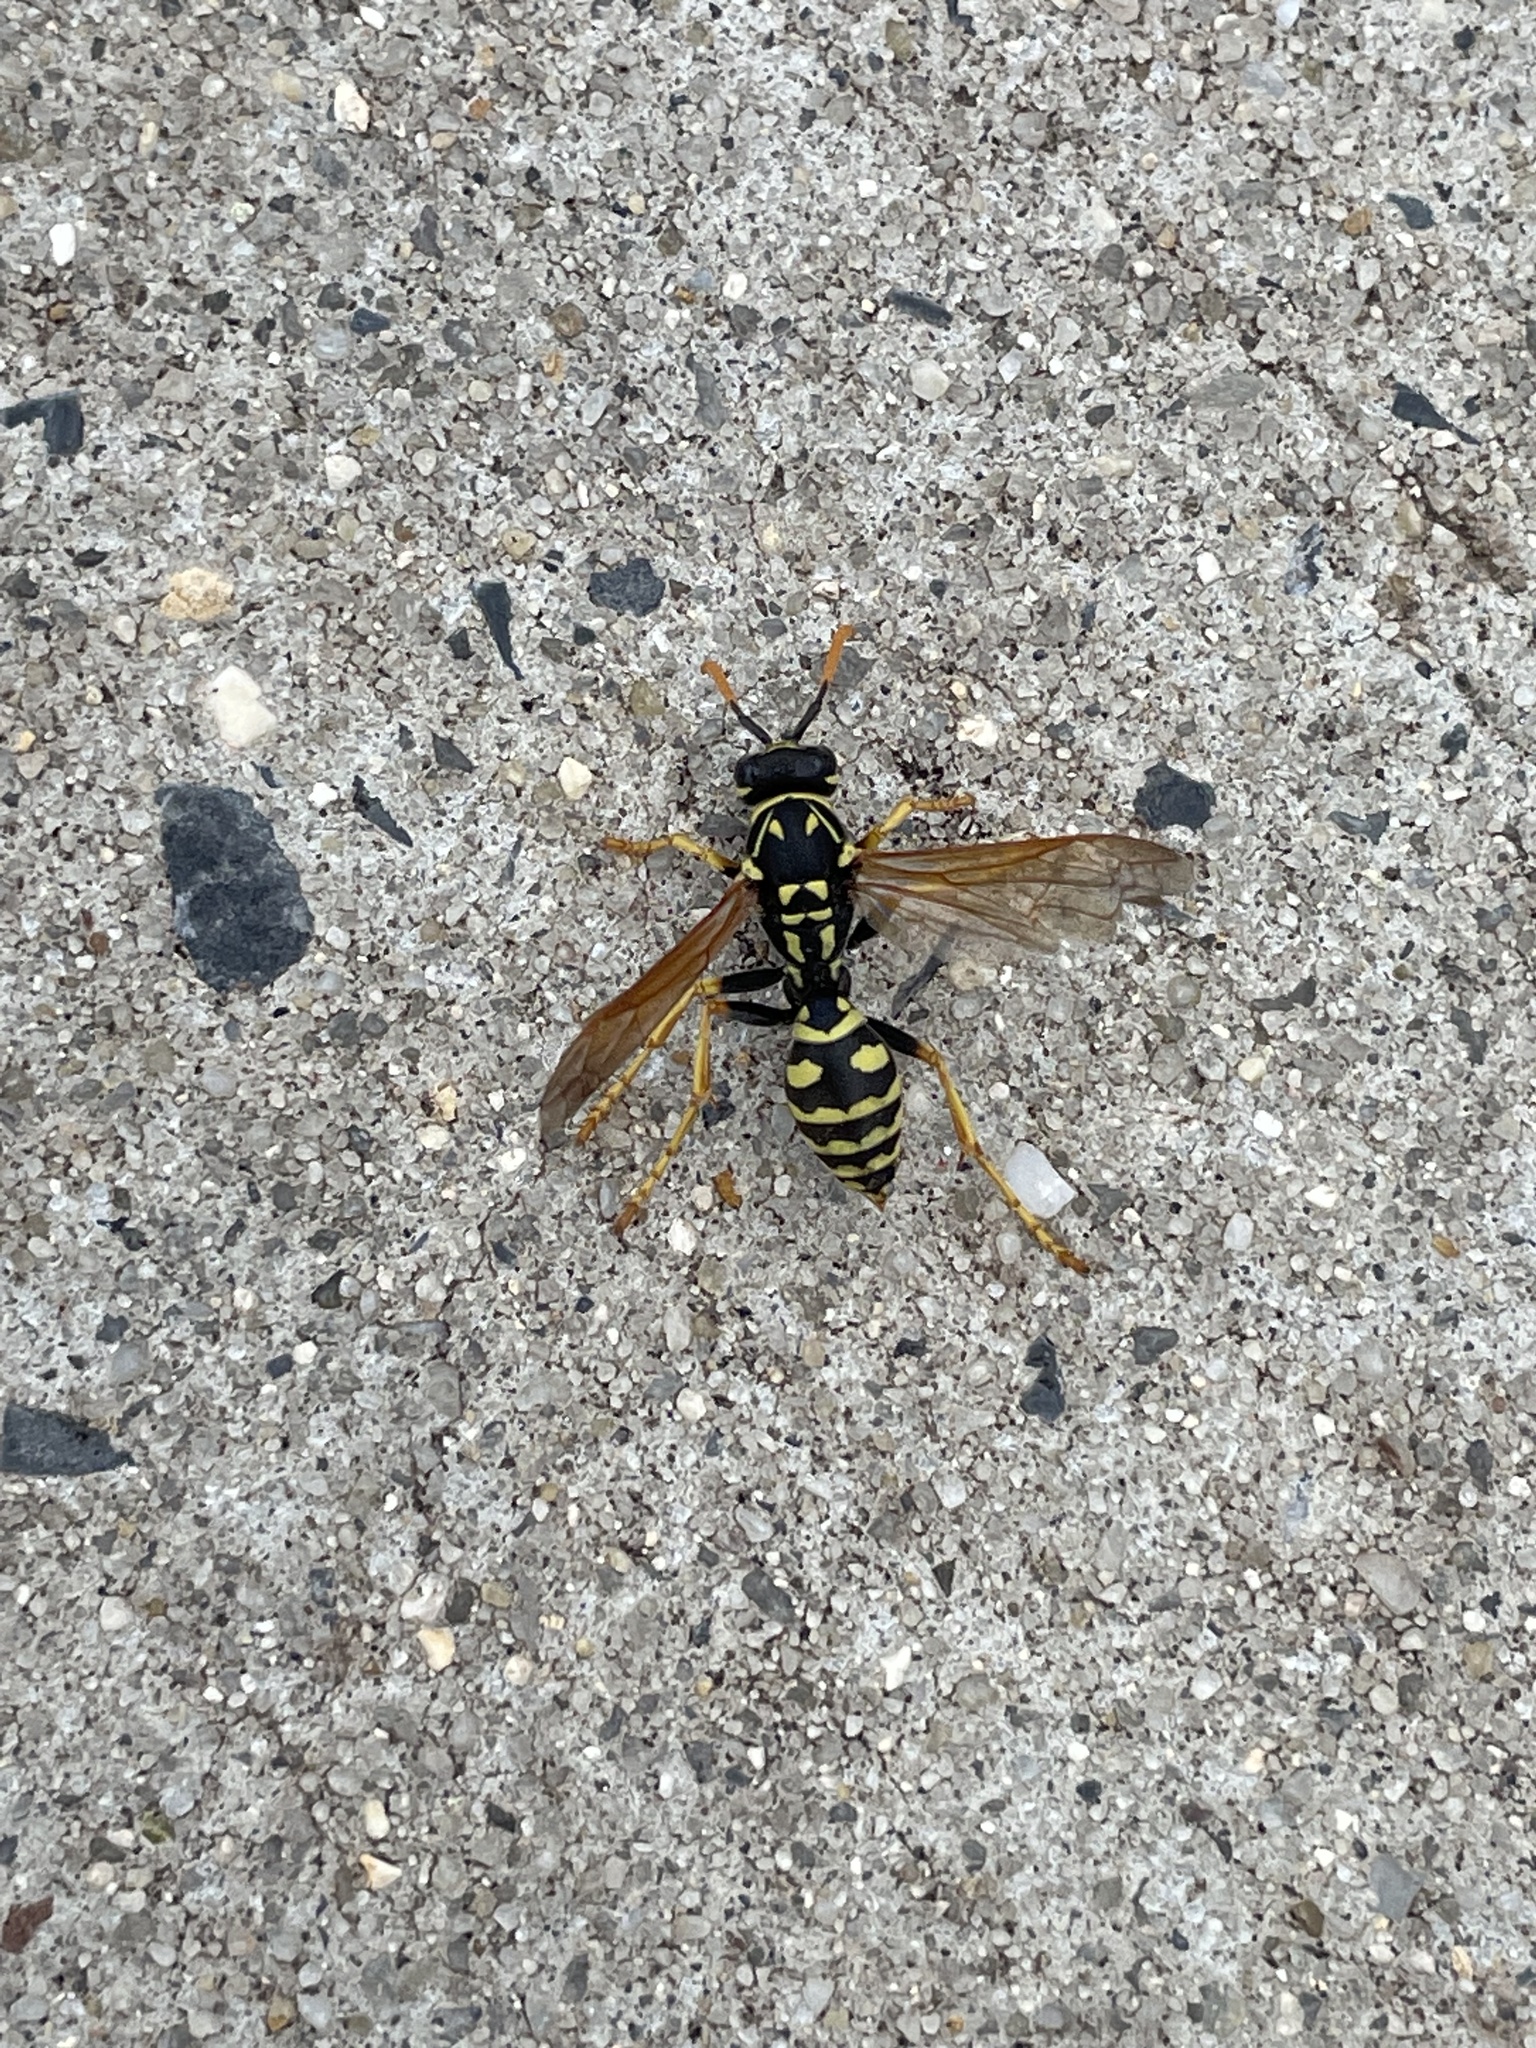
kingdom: Animalia
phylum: Arthropoda
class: Insecta
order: Hymenoptera
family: Eumenidae
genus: Polistes
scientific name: Polistes dominula
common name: Paper wasp
